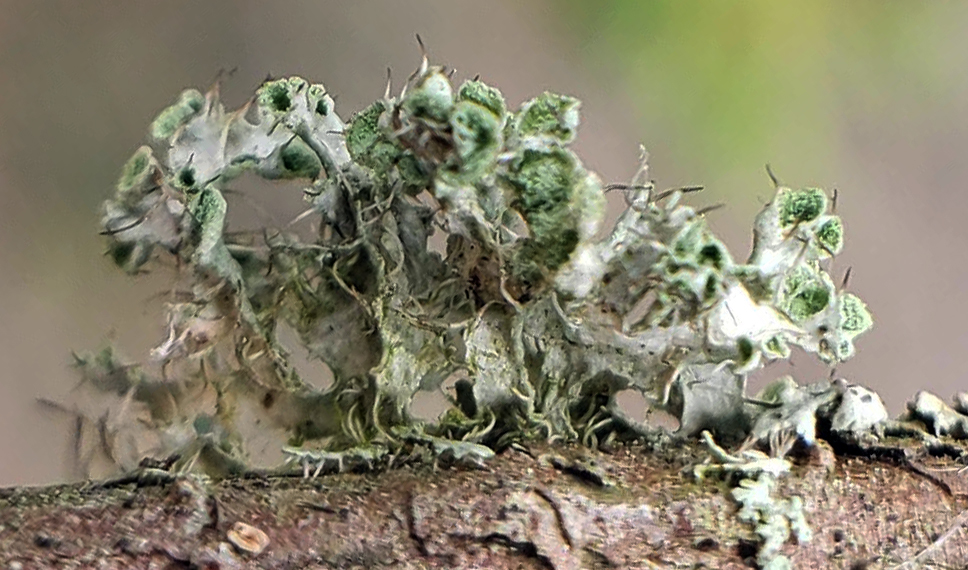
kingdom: Fungi
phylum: Ascomycota
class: Lecanoromycetes
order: Caliciales
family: Physciaceae
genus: Physcia
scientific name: Physcia adscendens
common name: Hooded rosette lichen
